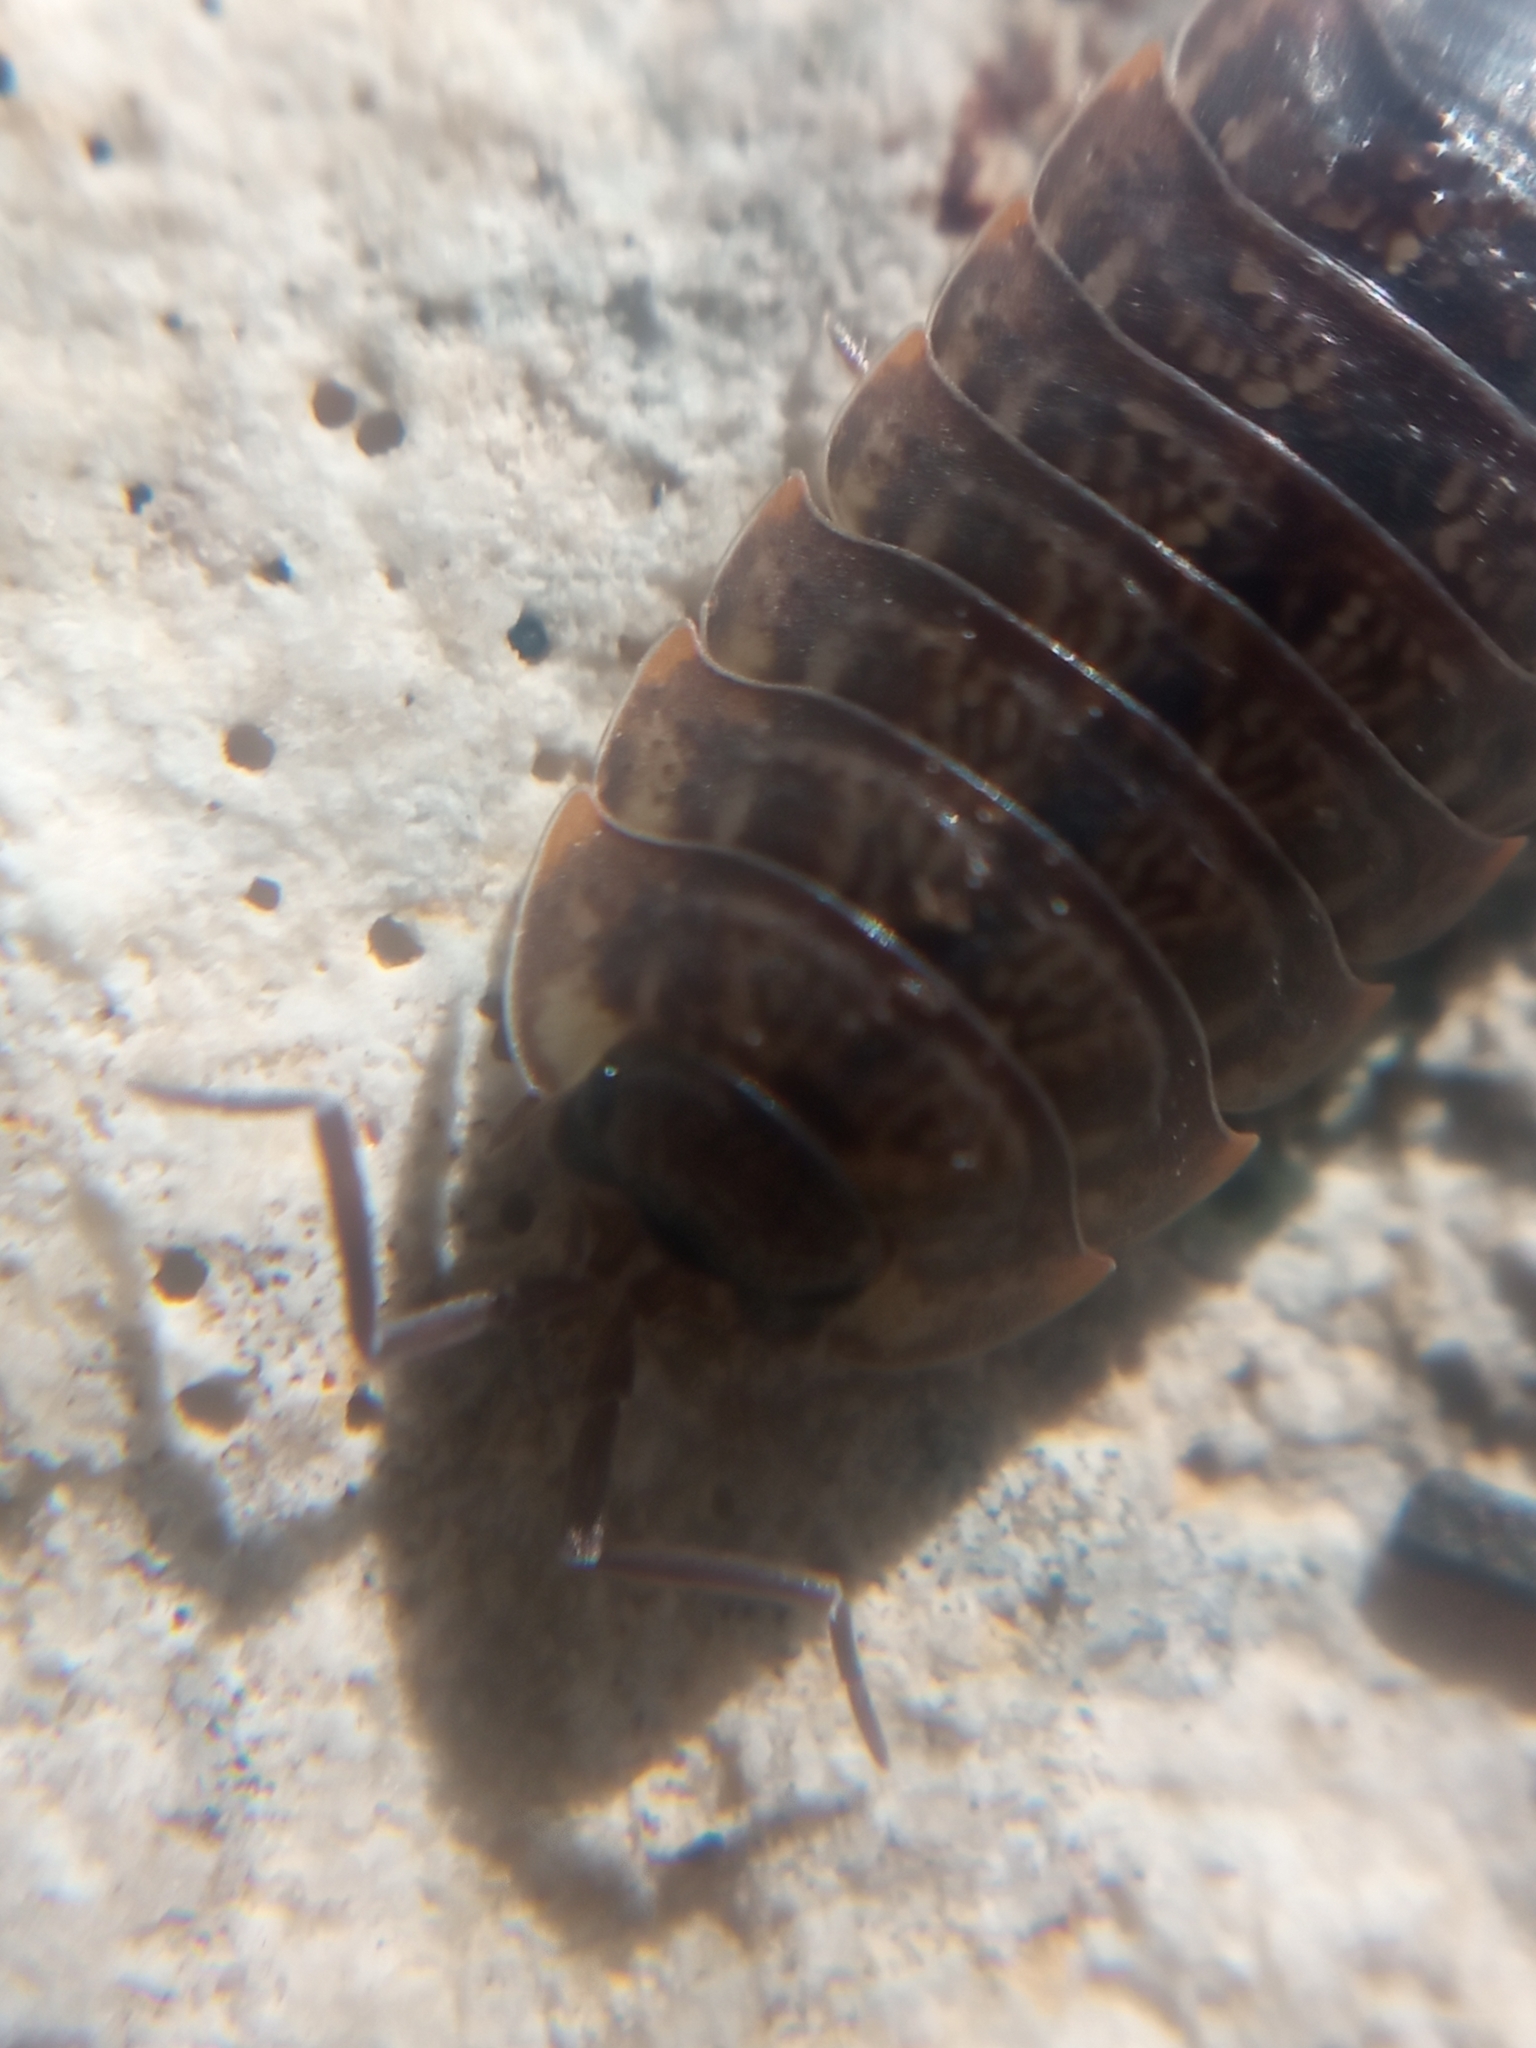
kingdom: Animalia
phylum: Arthropoda
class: Malacostraca
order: Isopoda
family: Porcellionidae
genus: Porcellio
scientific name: Porcellio montanus
